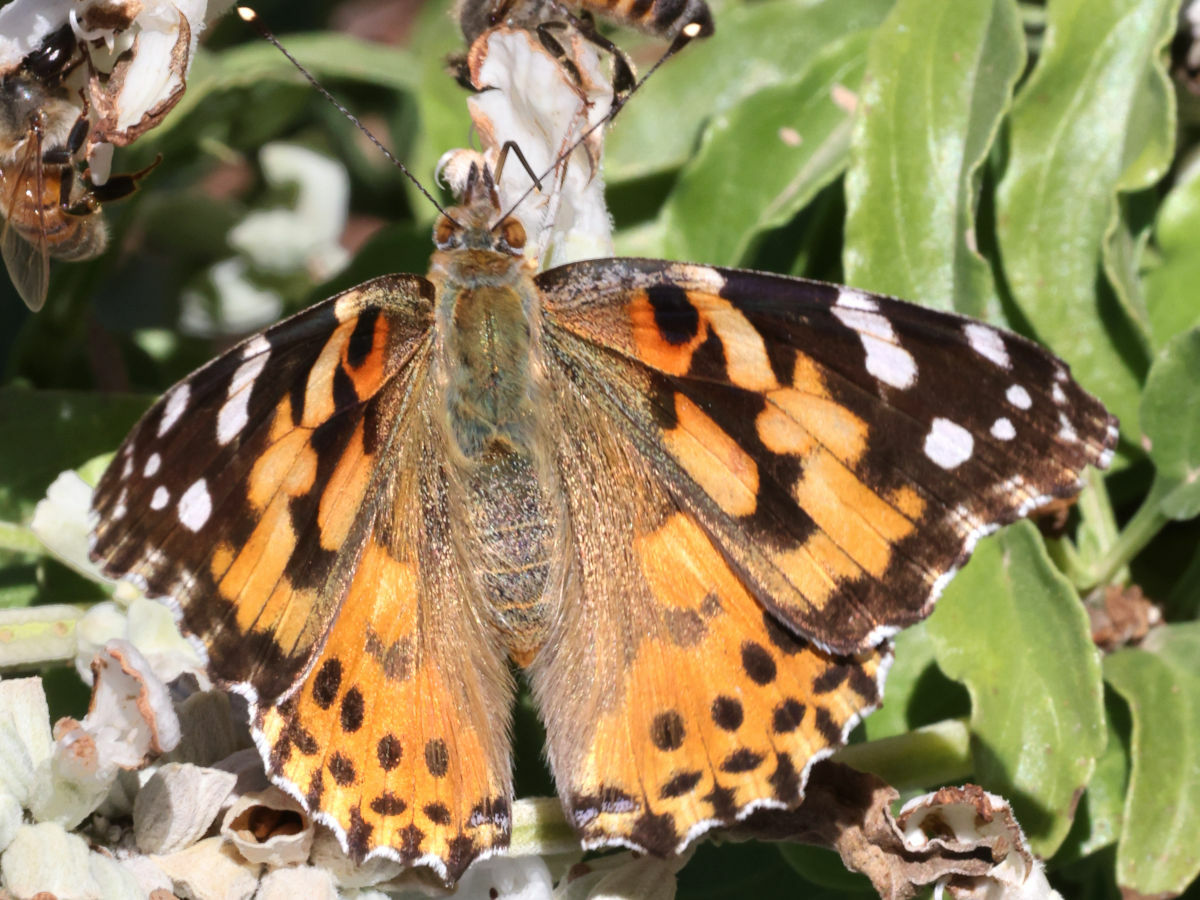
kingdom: Animalia
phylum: Arthropoda
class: Insecta
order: Lepidoptera
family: Nymphalidae
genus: Vanessa
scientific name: Vanessa cardui
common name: Painted lady
